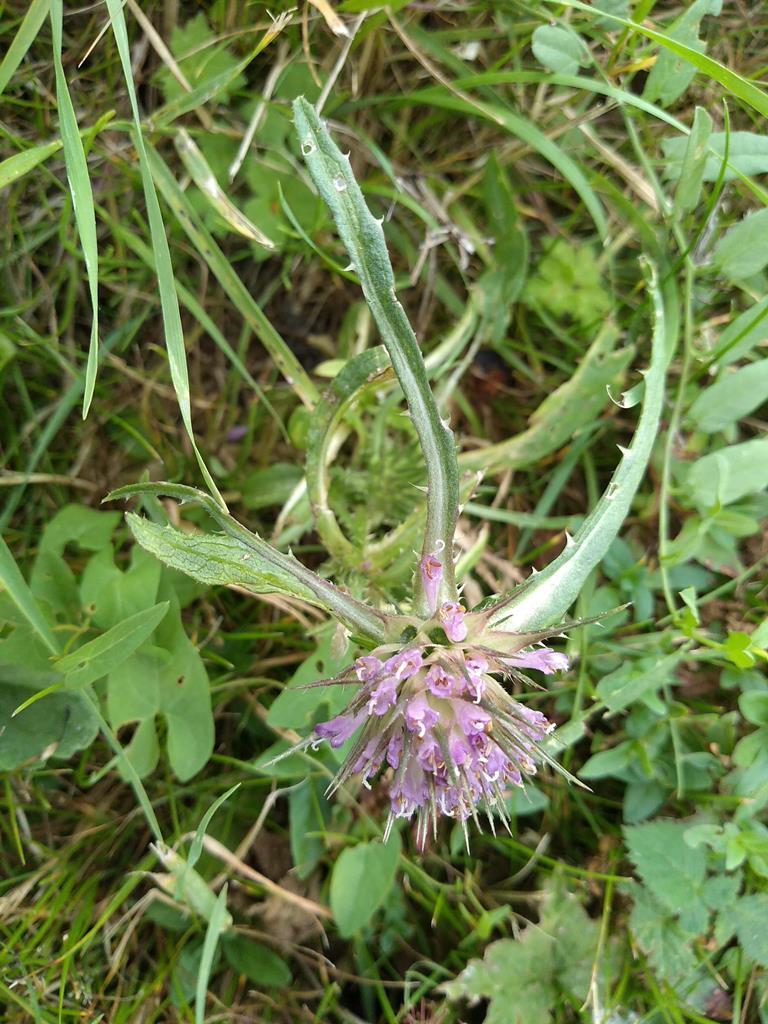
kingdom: Plantae
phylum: Tracheophyta
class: Magnoliopsida
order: Dipsacales
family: Caprifoliaceae
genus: Dipsacus
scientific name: Dipsacus fullonum
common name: Teasel
